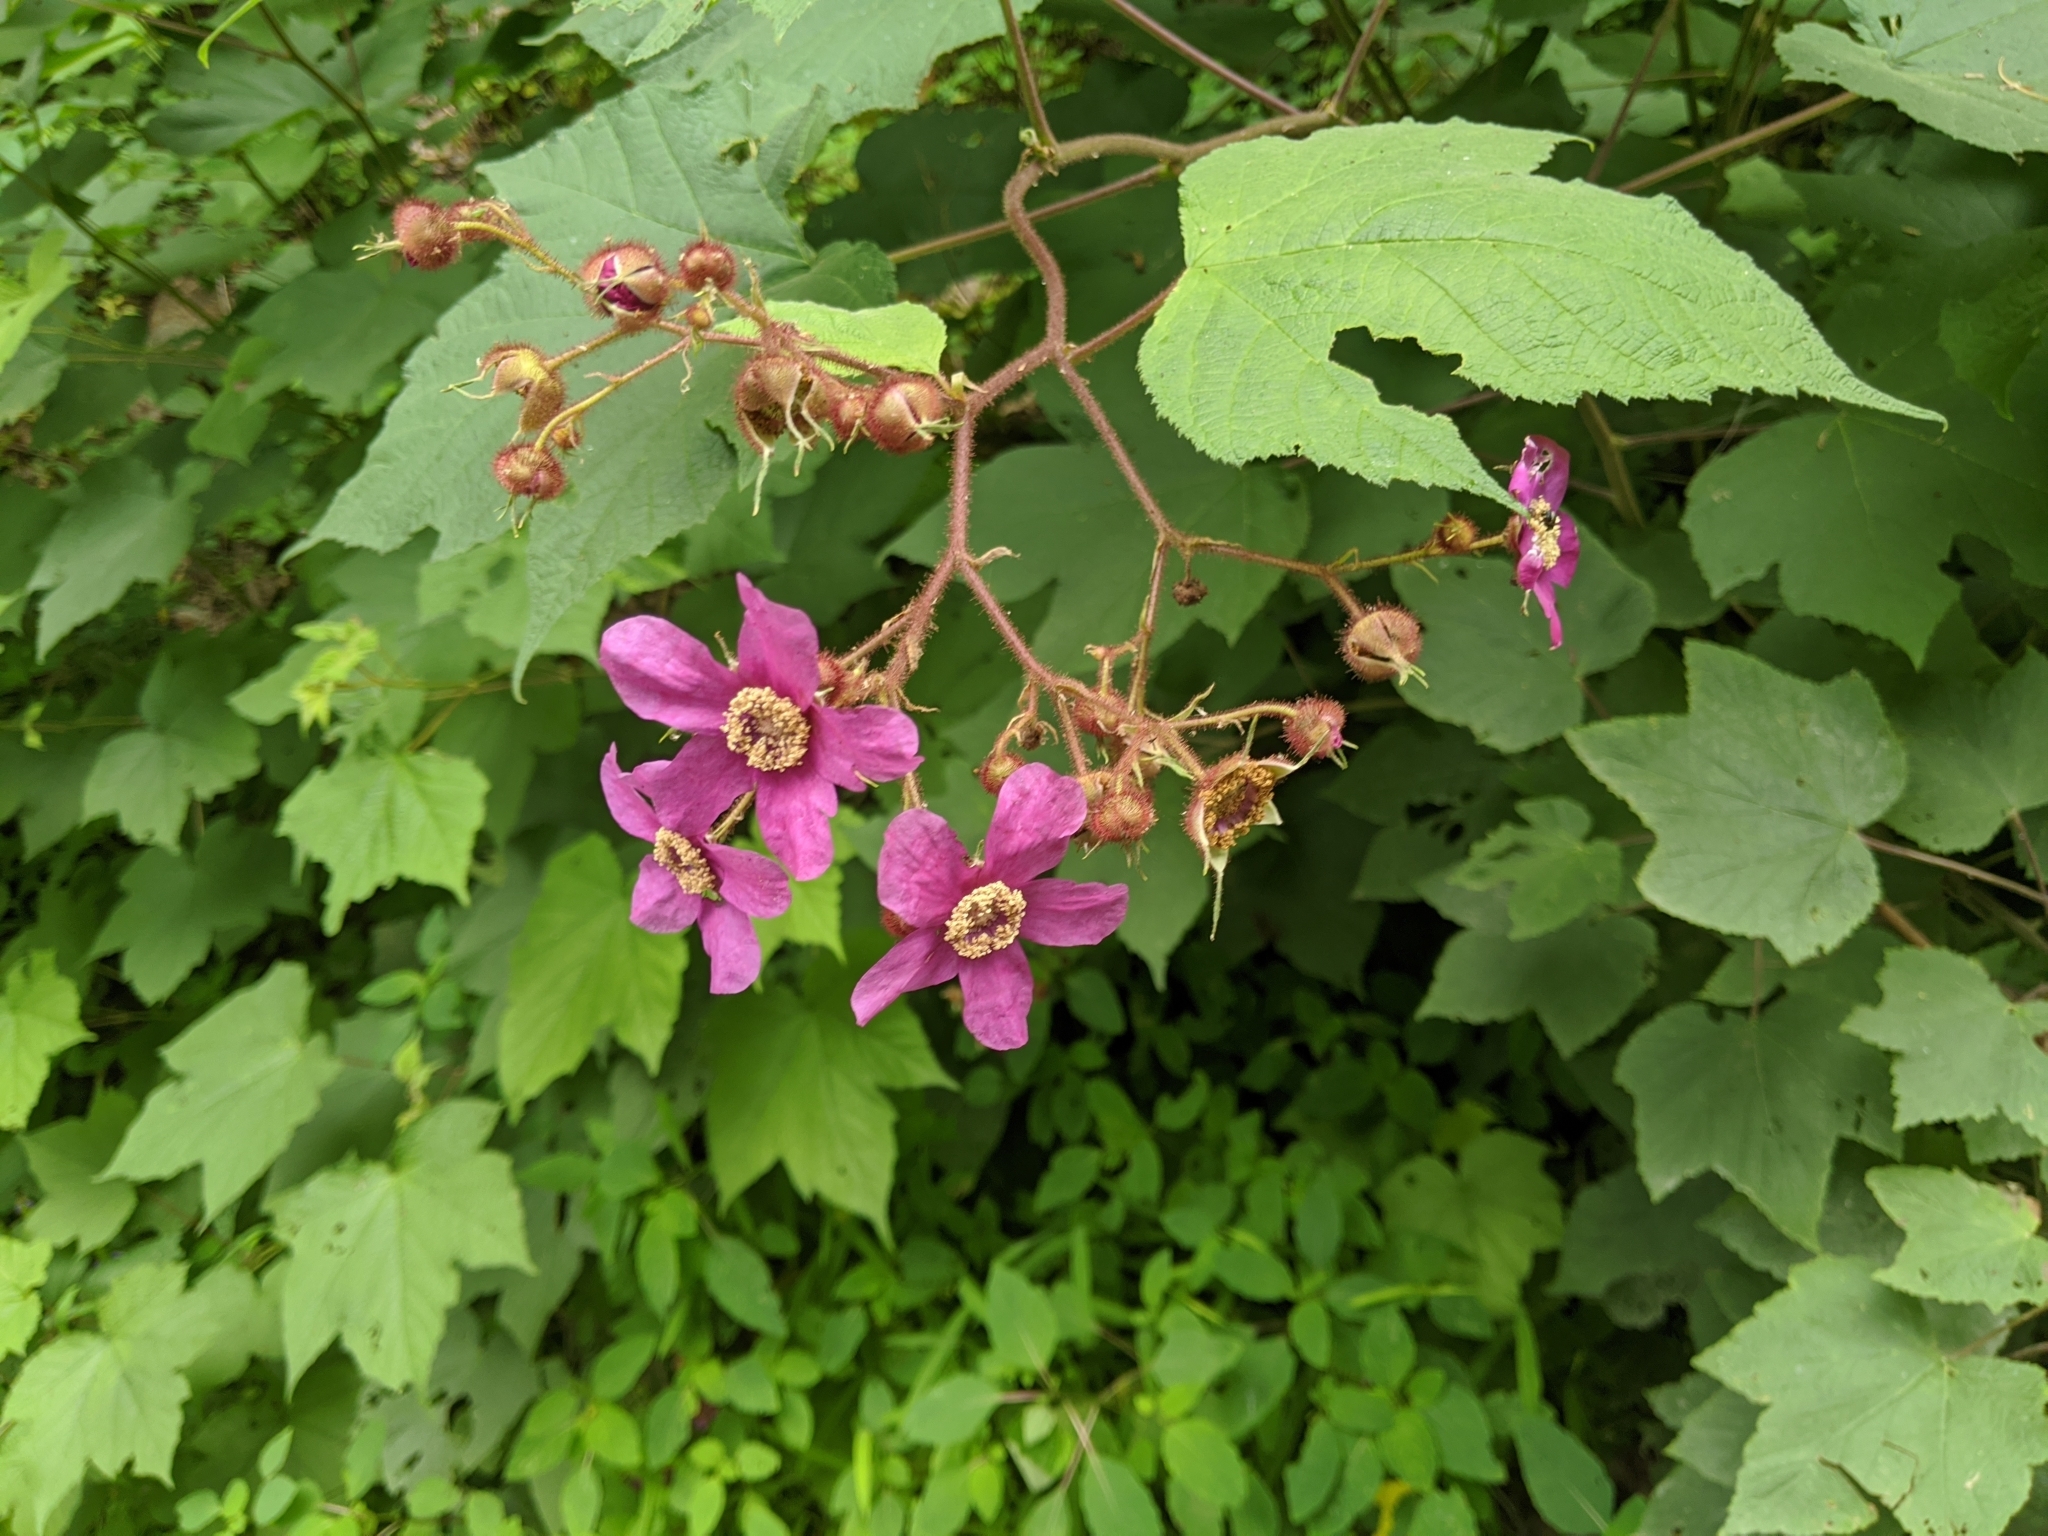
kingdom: Plantae
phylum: Tracheophyta
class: Magnoliopsida
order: Rosales
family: Rosaceae
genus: Rubus
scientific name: Rubus odoratus
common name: Purple-flowered raspberry
